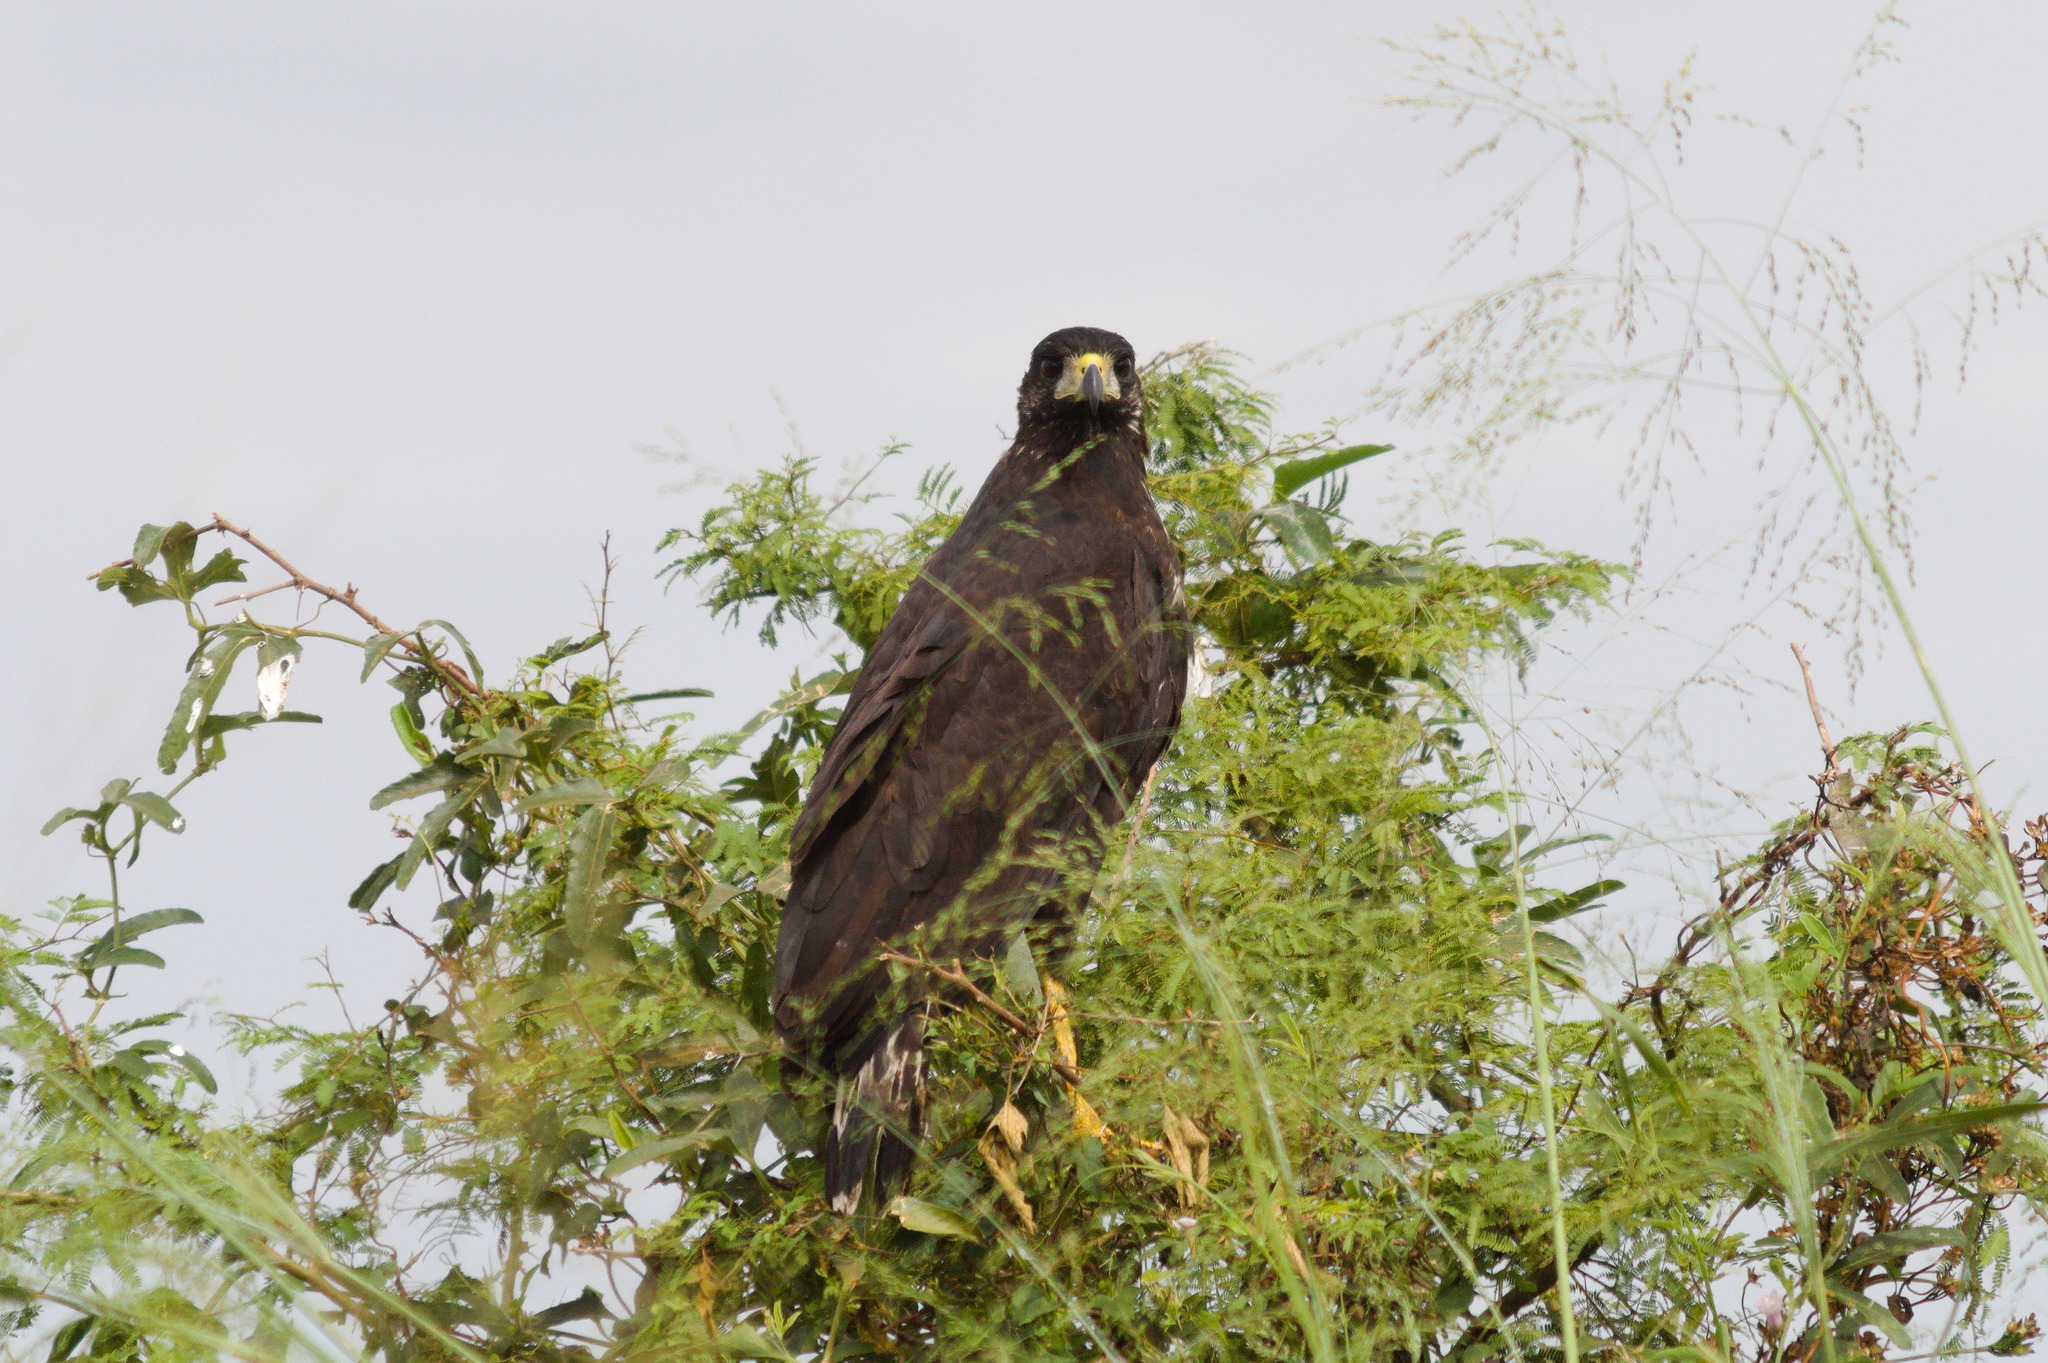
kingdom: Animalia
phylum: Chordata
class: Aves
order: Accipitriformes
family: Accipitridae
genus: Buteogallus
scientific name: Buteogallus urubitinga
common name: Great black hawk
